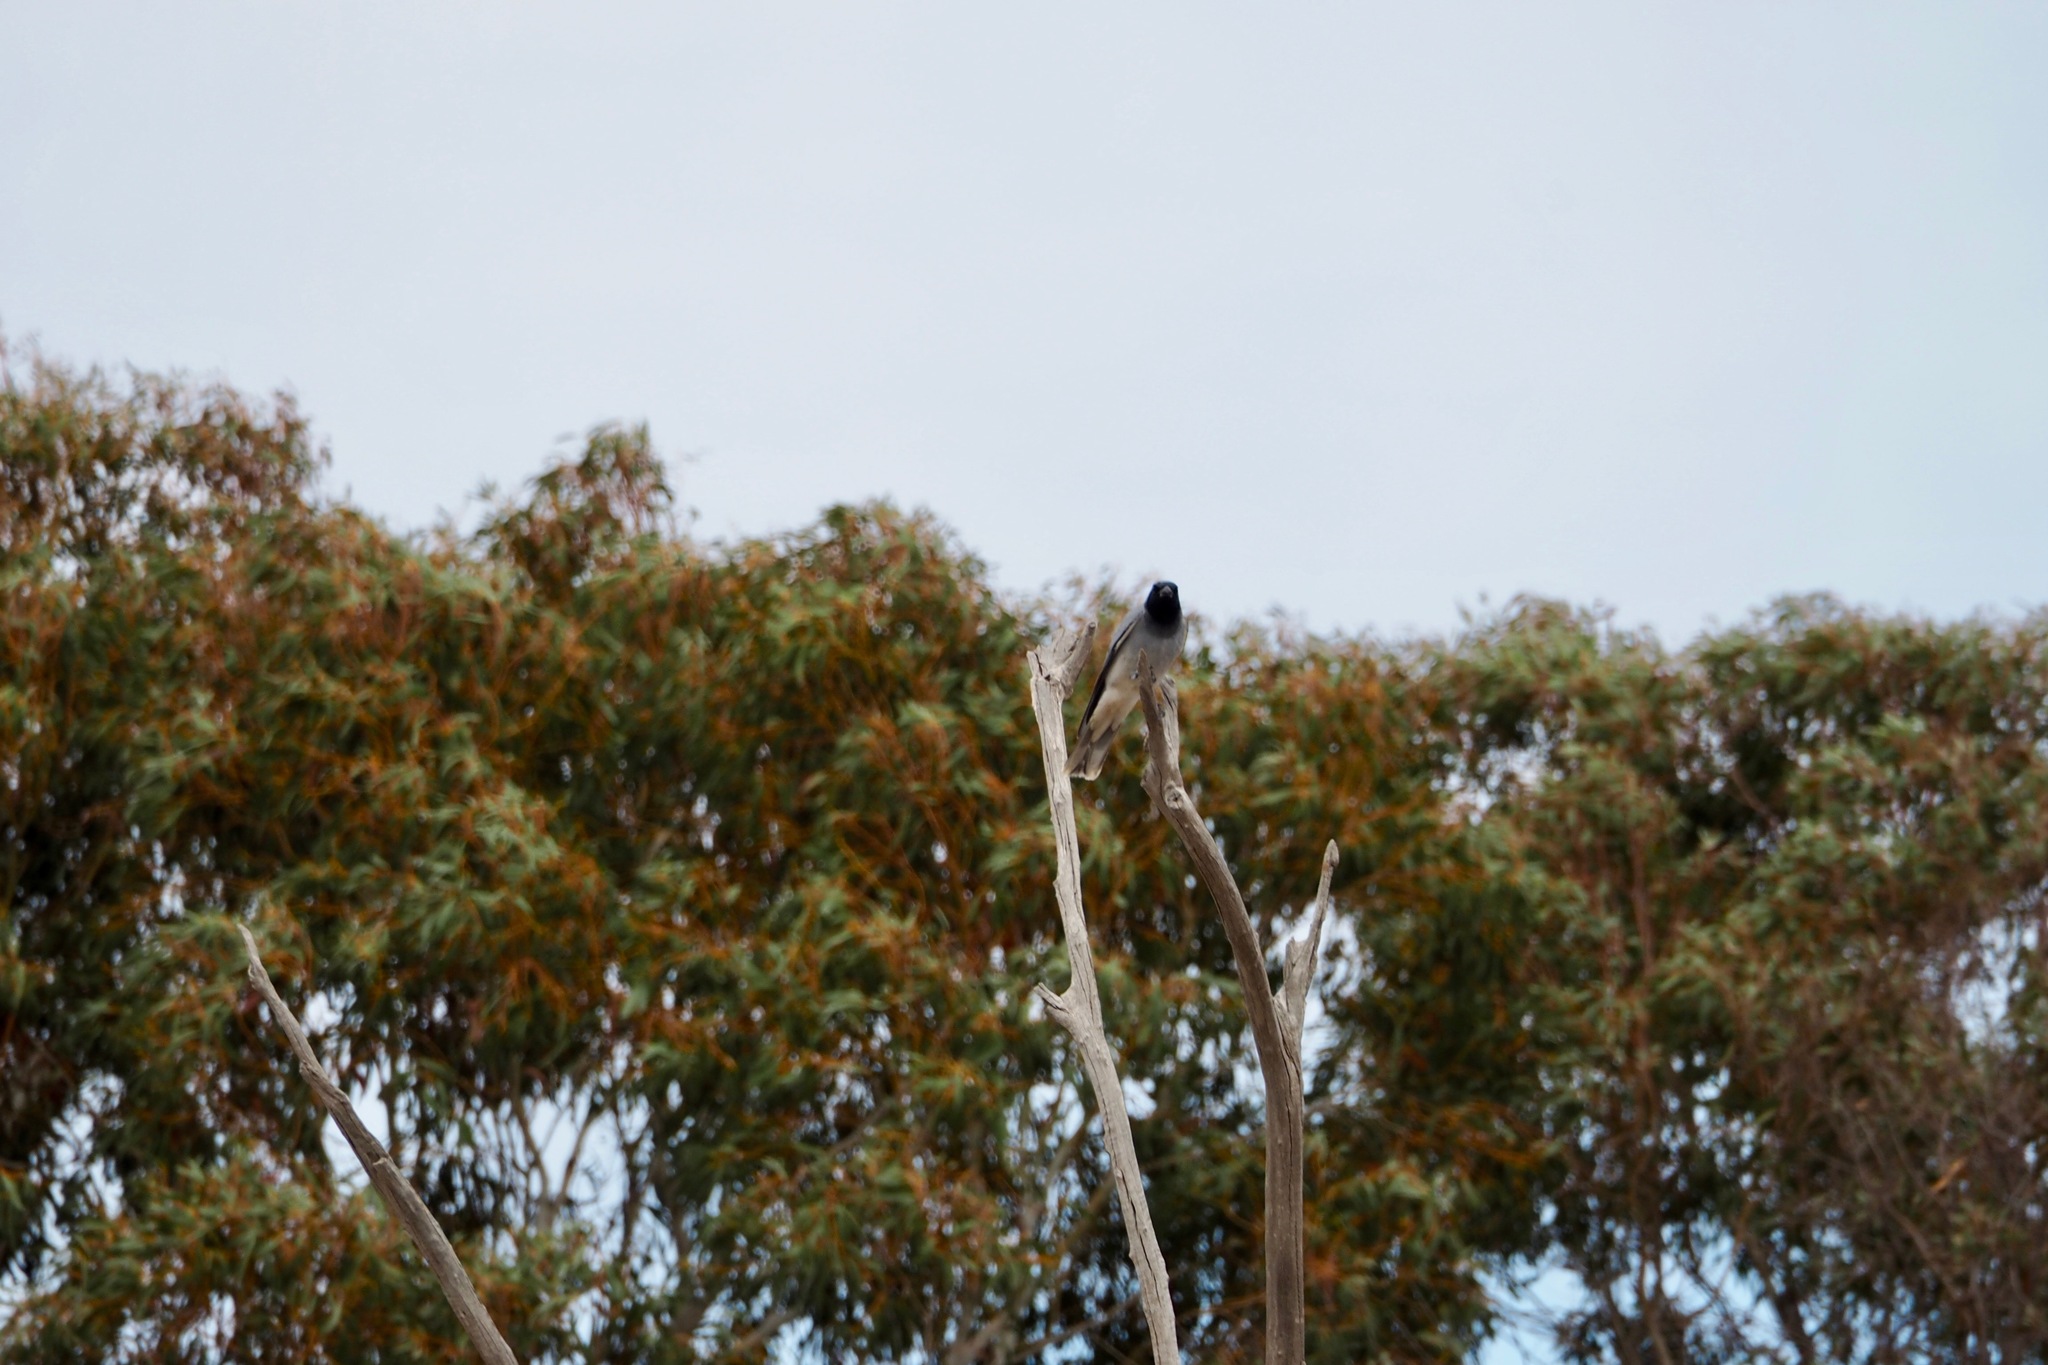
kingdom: Animalia
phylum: Chordata
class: Aves
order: Passeriformes
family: Campephagidae
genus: Coracina
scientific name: Coracina novaehollandiae
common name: Black-faced cuckooshrike
